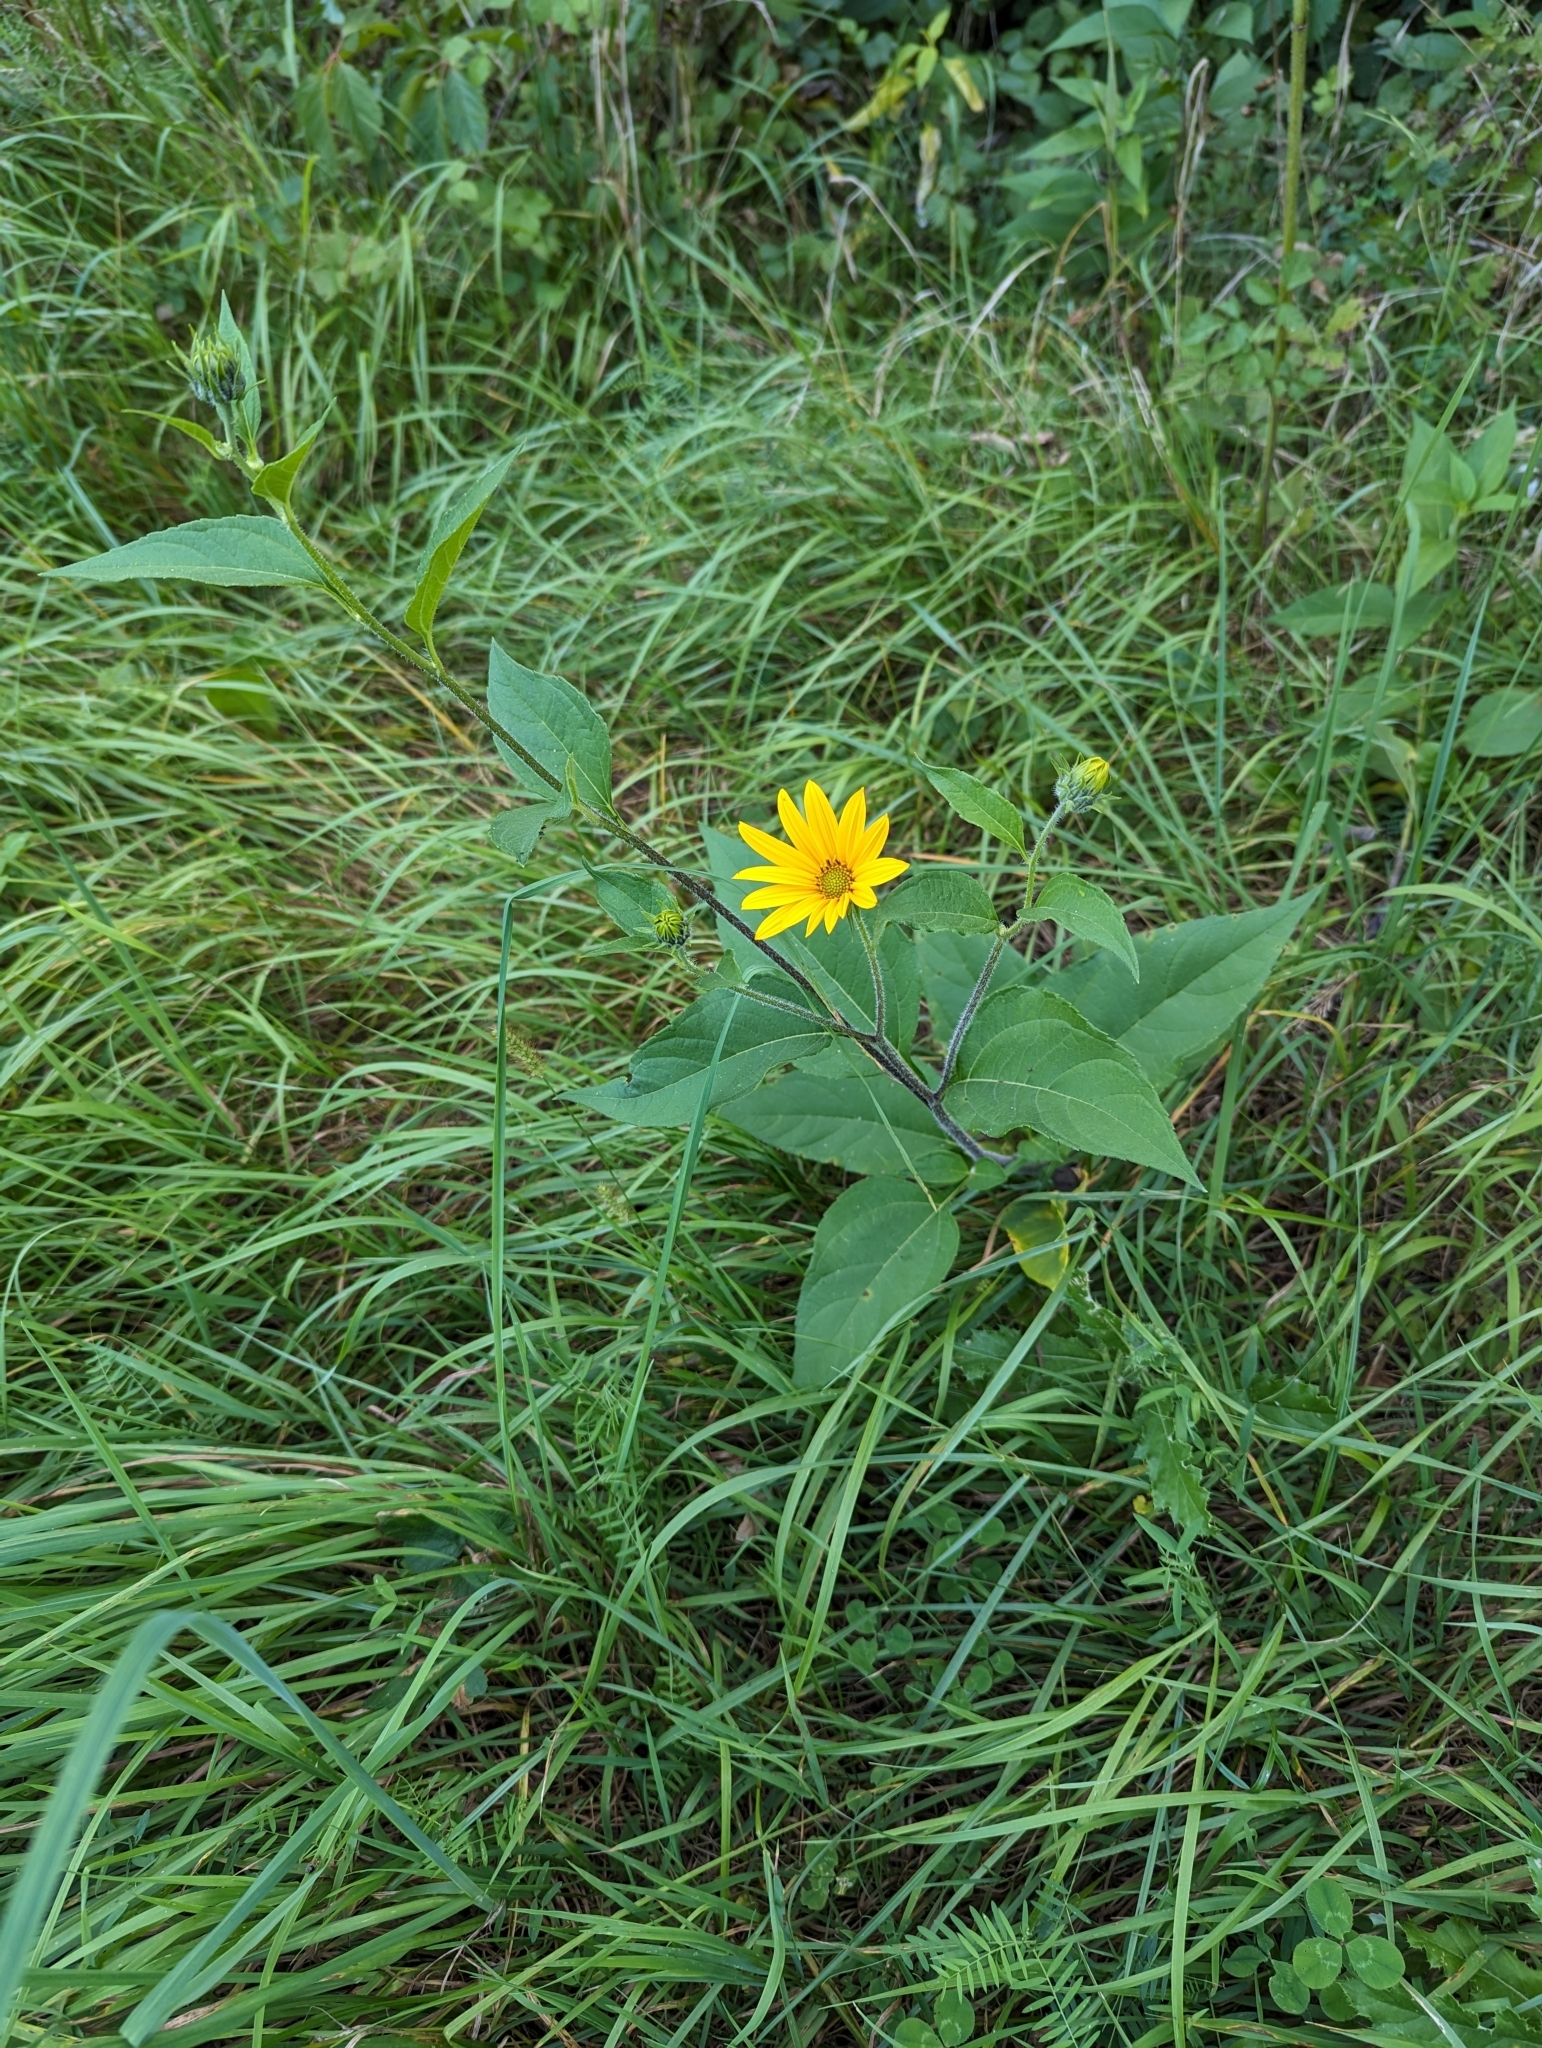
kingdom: Plantae
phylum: Tracheophyta
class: Magnoliopsida
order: Asterales
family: Asteraceae
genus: Helianthus
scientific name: Helianthus tuberosus
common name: Jerusalem artichoke
